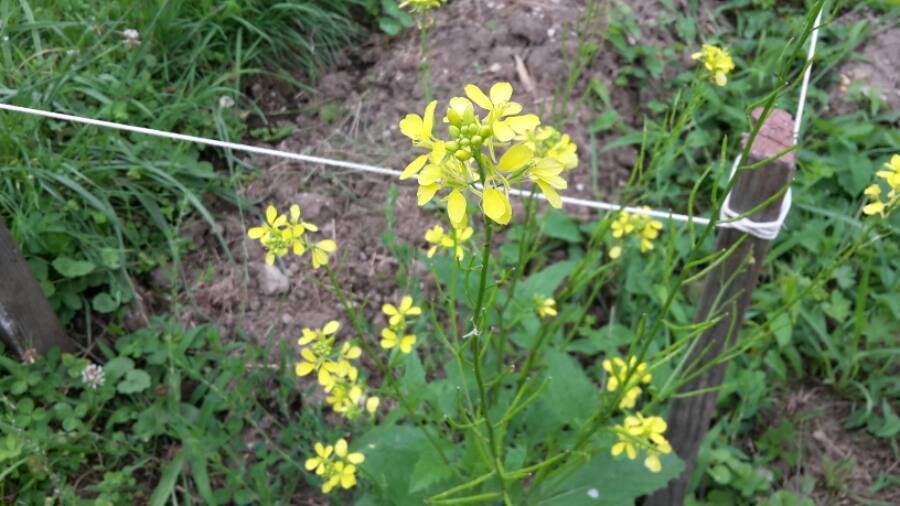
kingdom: Plantae
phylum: Tracheophyta
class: Magnoliopsida
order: Brassicales
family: Brassicaceae
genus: Sinapis
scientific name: Sinapis arvensis
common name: Charlock
